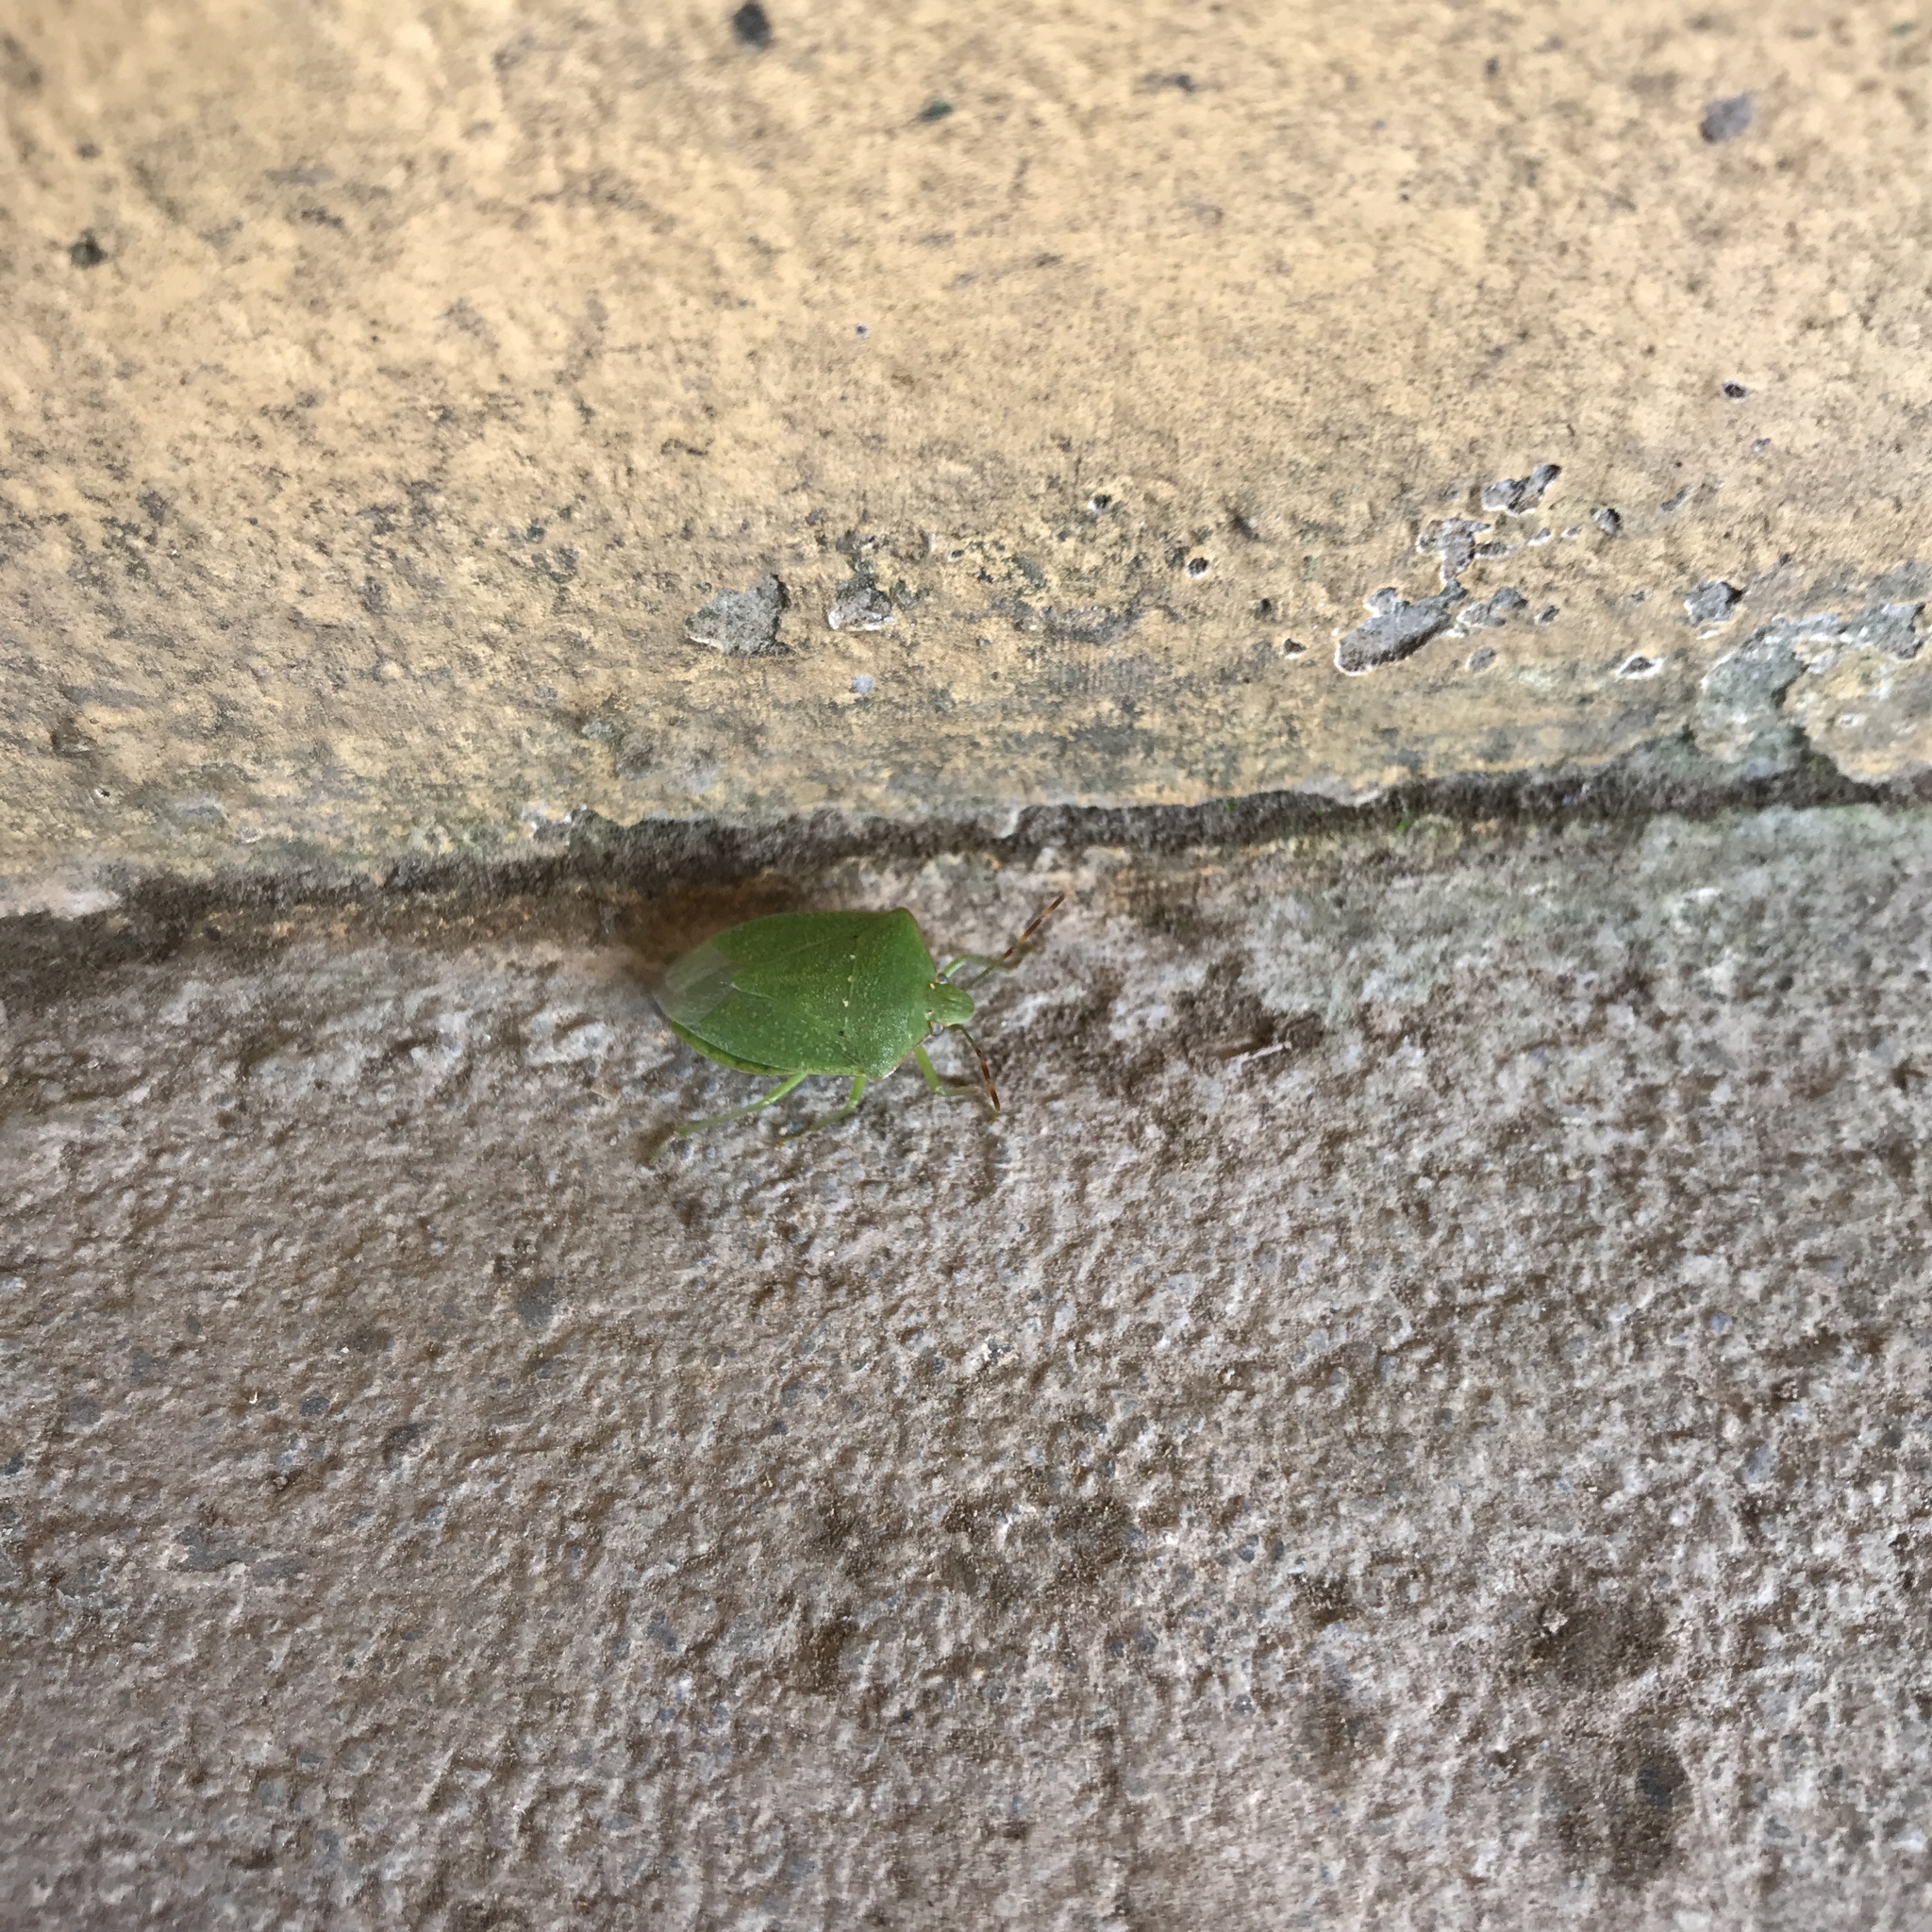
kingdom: Animalia
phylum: Arthropoda
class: Insecta
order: Hemiptera
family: Pentatomidae
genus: Nezara
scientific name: Nezara viridula
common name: Southern green stink bug
